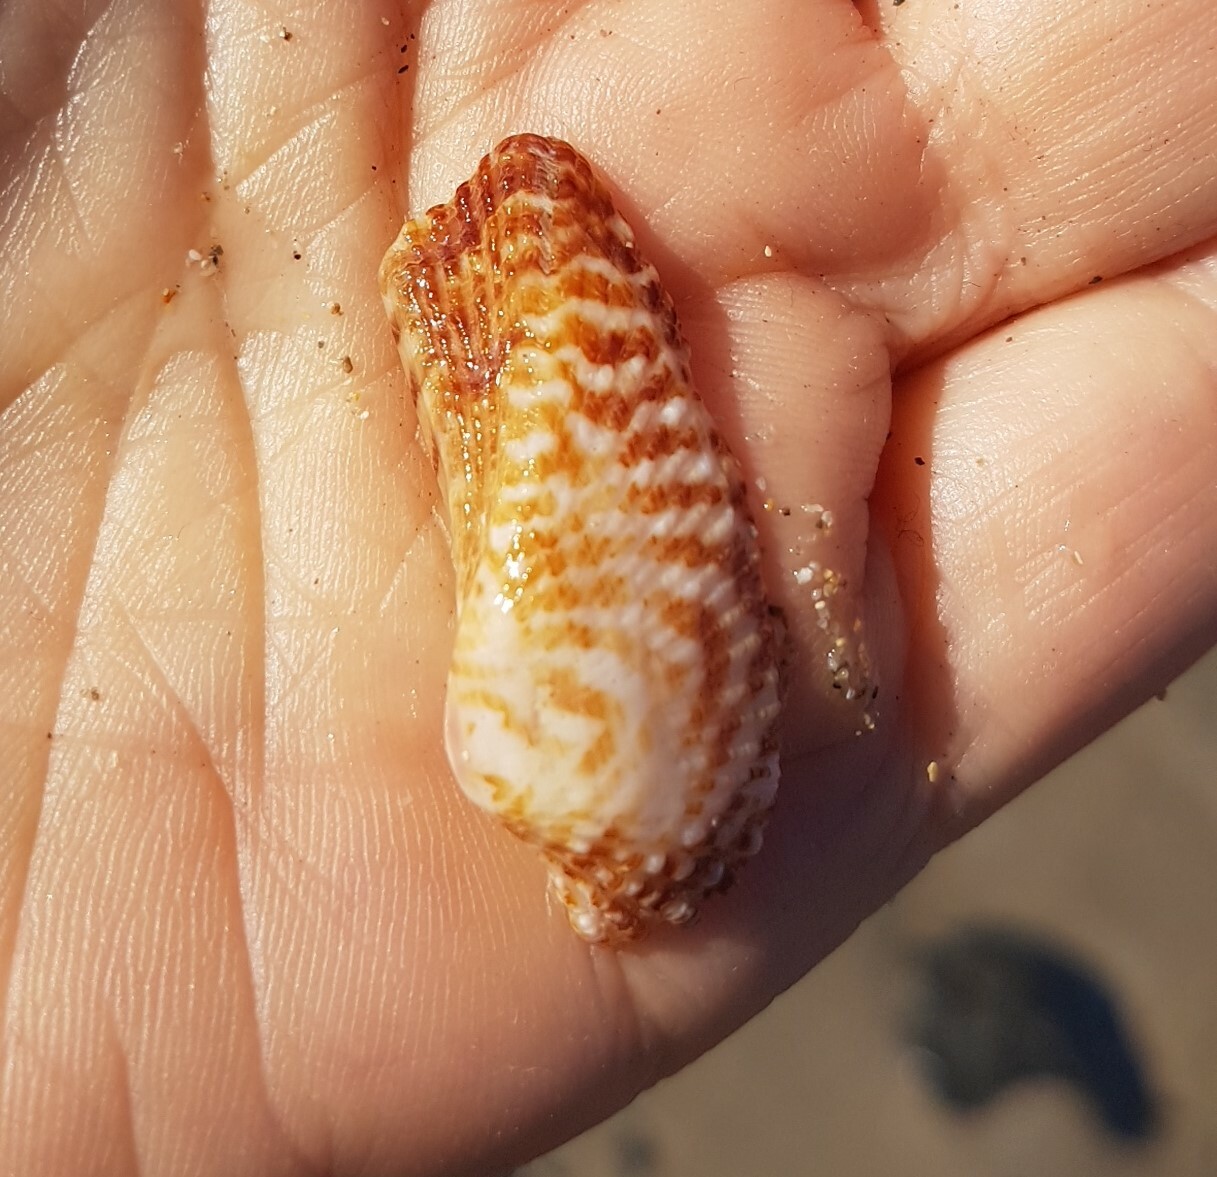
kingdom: Animalia
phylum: Mollusca
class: Bivalvia
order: Arcida
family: Arcidae
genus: Arca
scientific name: Arca noae
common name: Noah's arch
